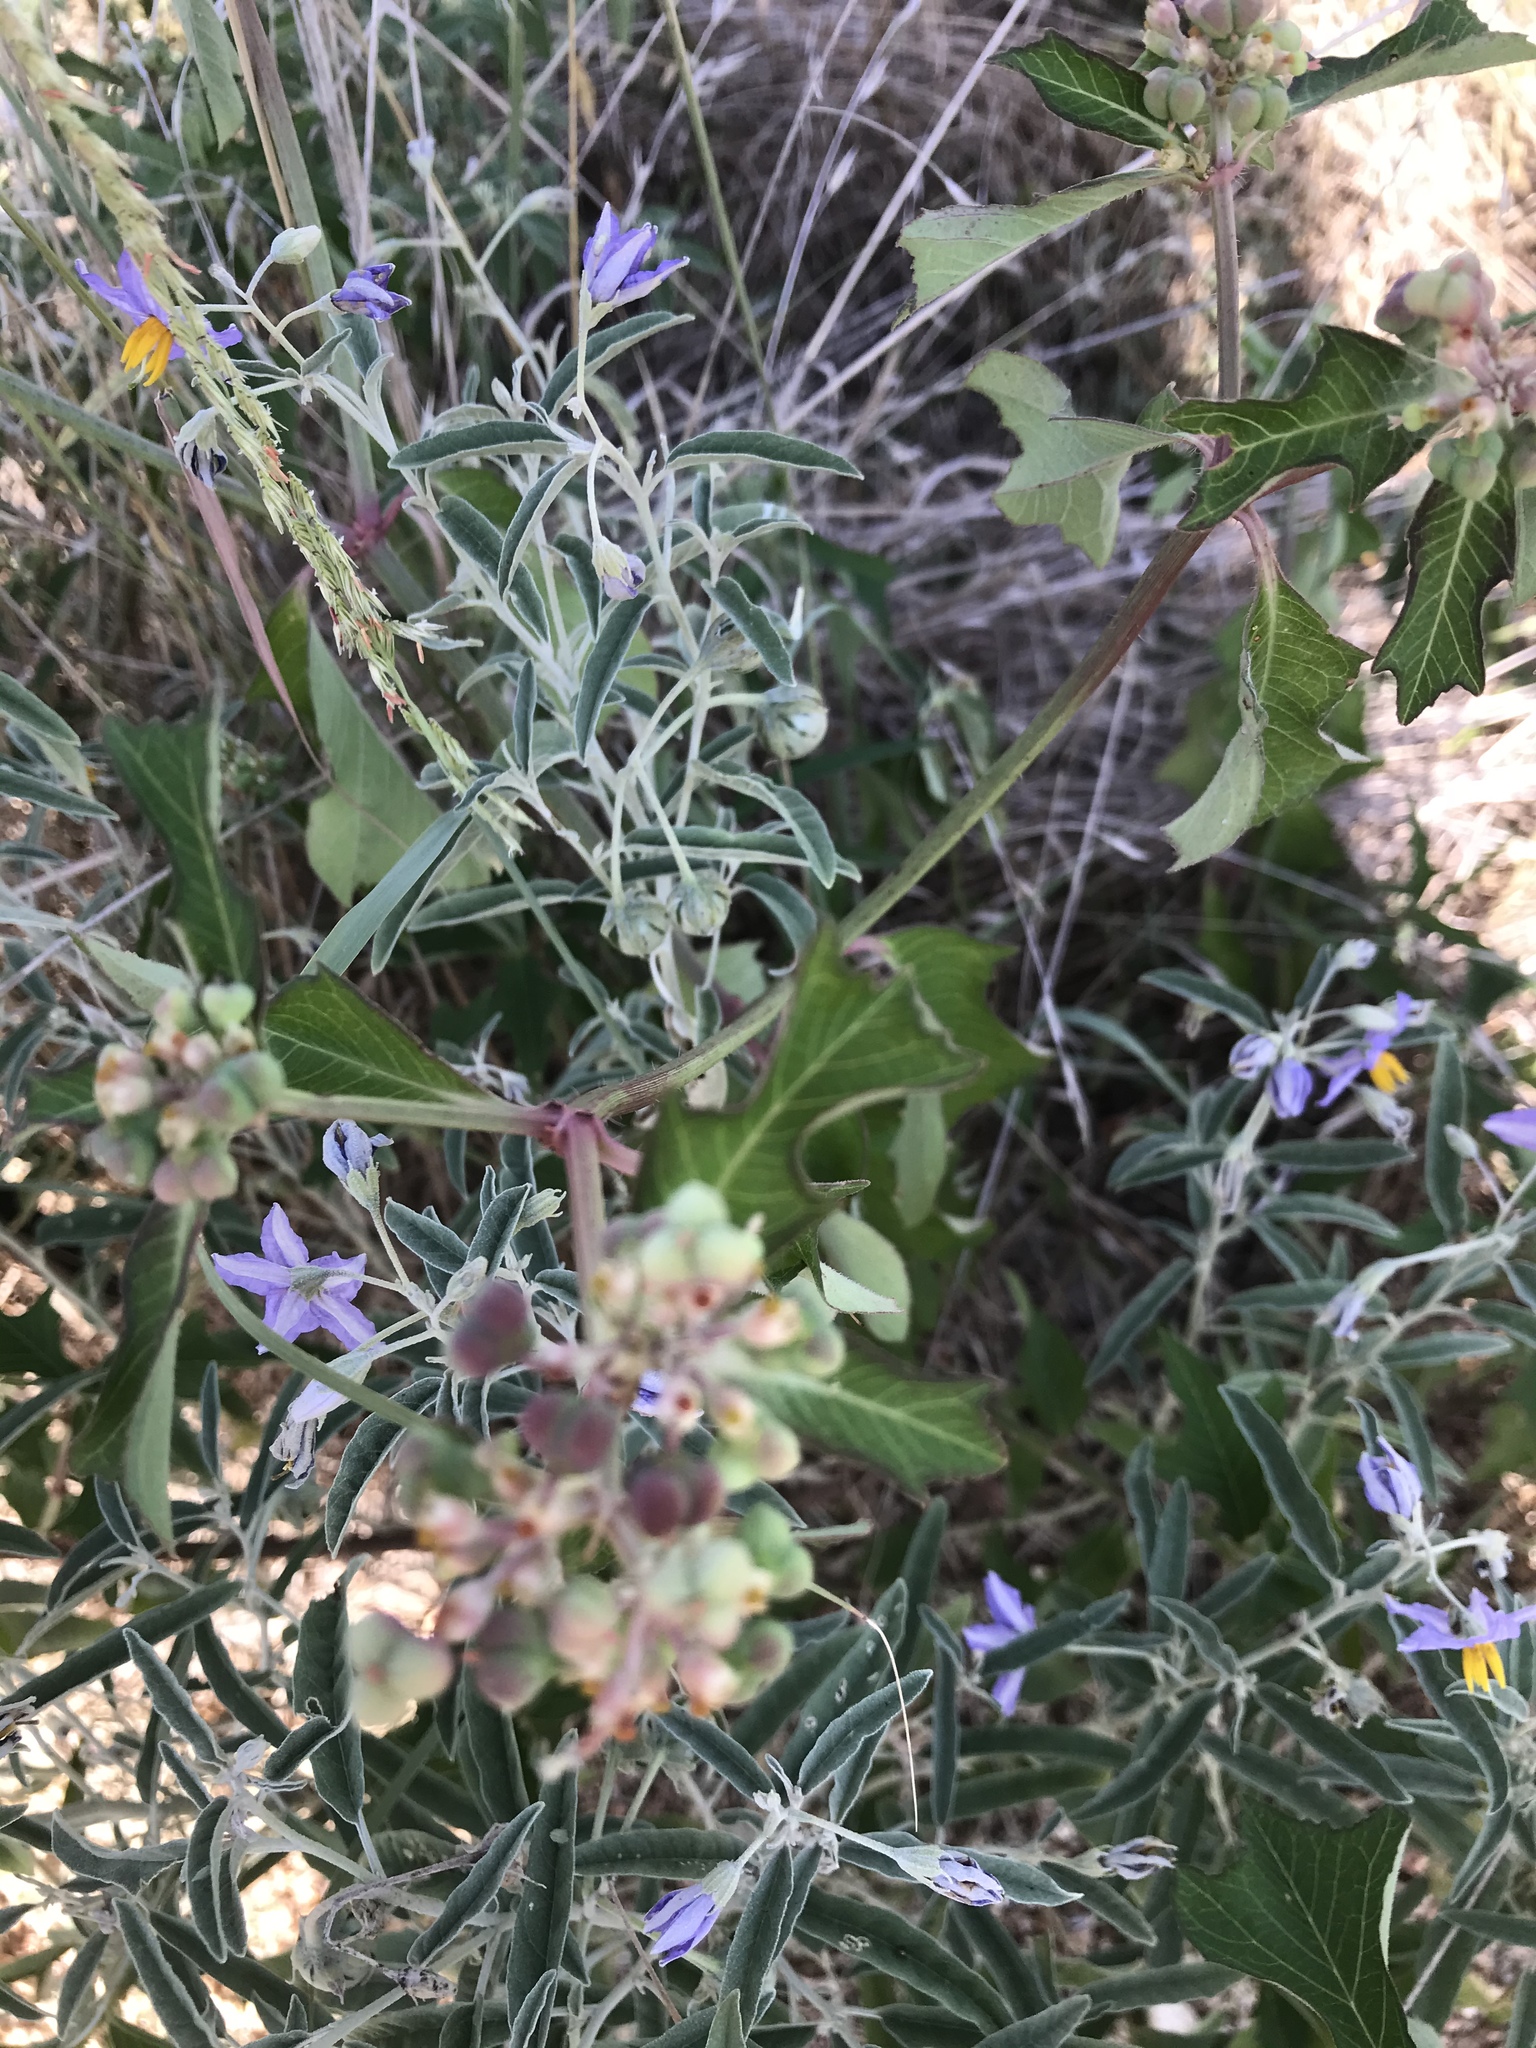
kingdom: Plantae
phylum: Tracheophyta
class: Magnoliopsida
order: Malpighiales
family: Euphorbiaceae
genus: Euphorbia
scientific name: Euphorbia heterophylla
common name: Mexican fireplant
